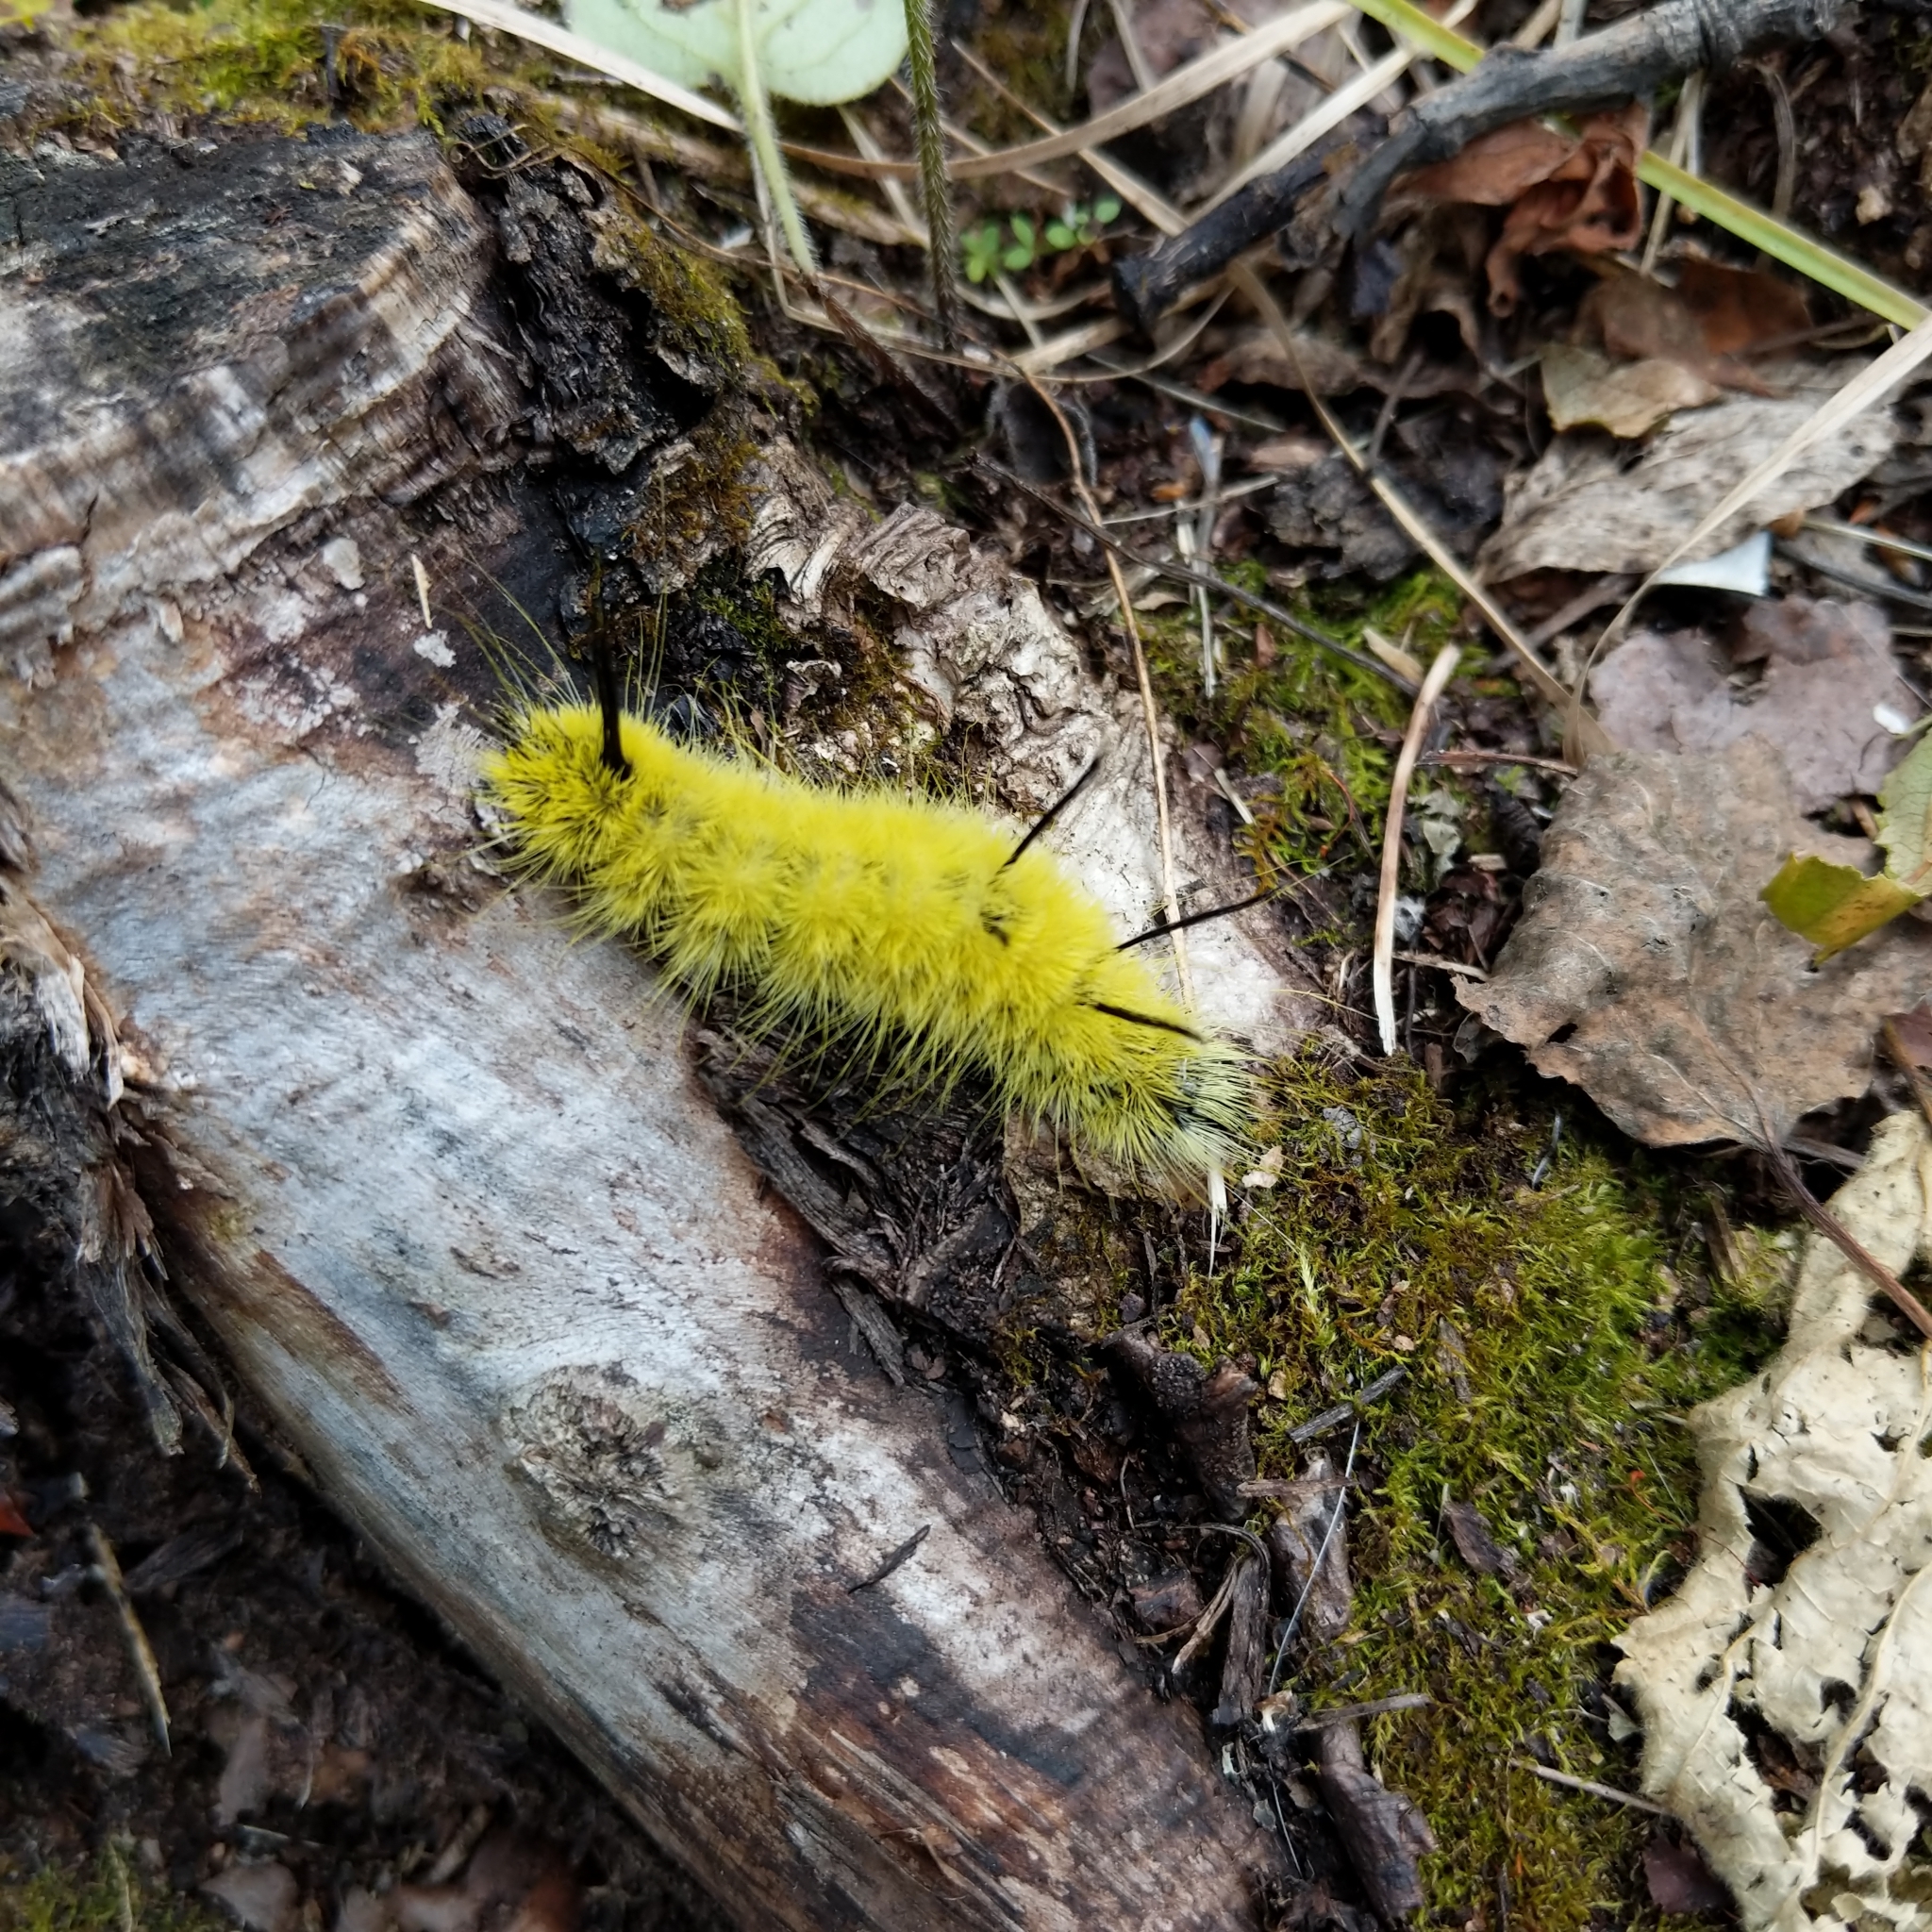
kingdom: Animalia
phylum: Arthropoda
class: Insecta
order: Lepidoptera
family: Noctuidae
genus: Acronicta
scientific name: Acronicta americana
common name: American dagger
